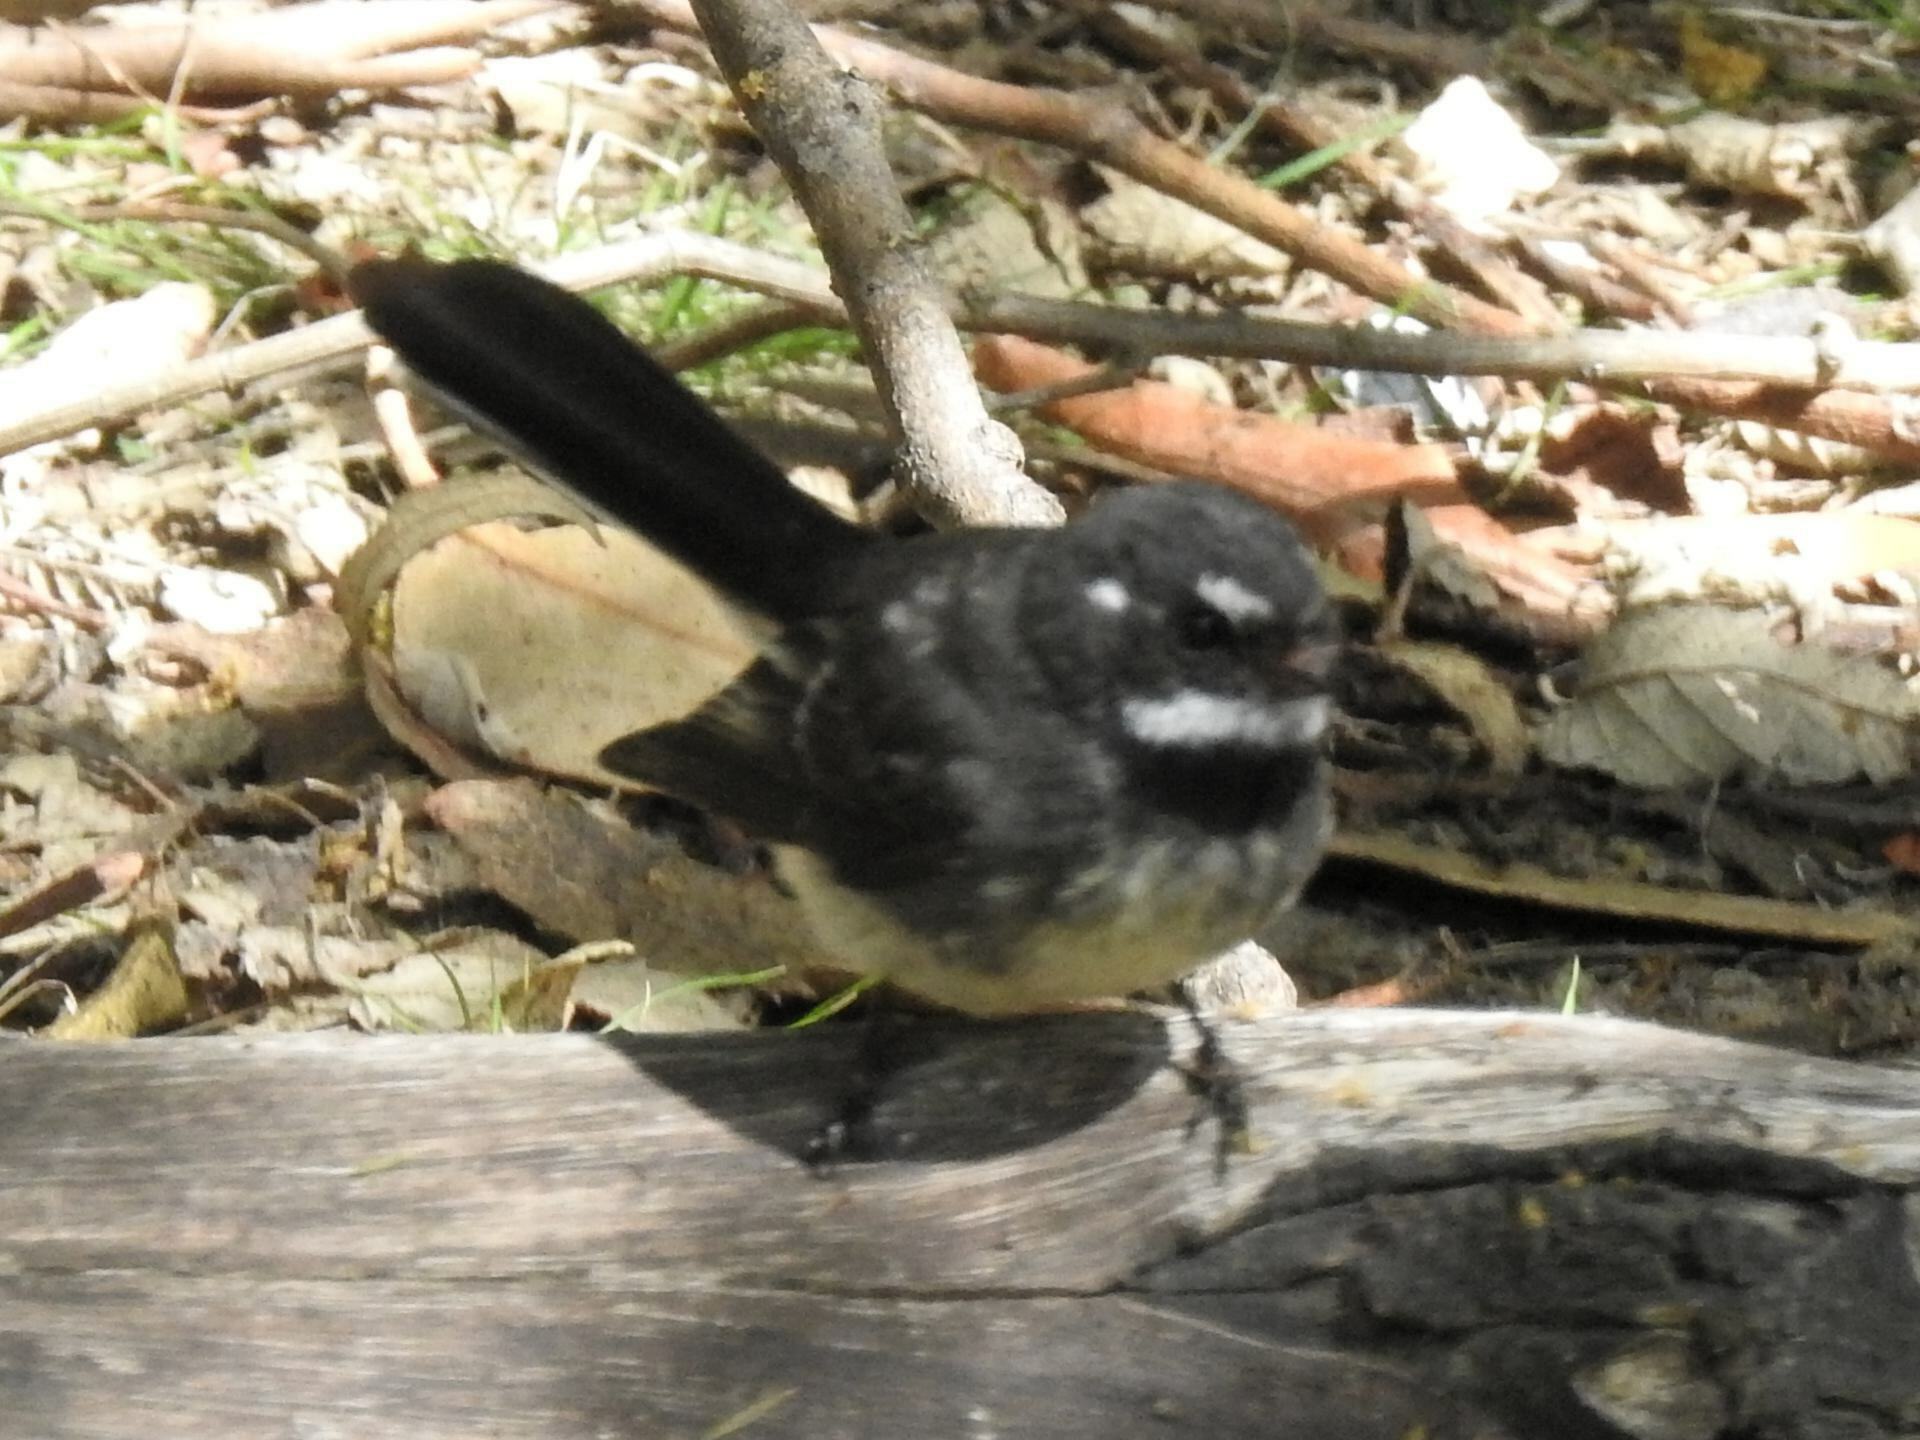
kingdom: Animalia
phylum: Chordata
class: Aves
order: Passeriformes
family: Rhipiduridae
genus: Rhipidura
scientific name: Rhipidura albiscapa
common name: Grey fantail
